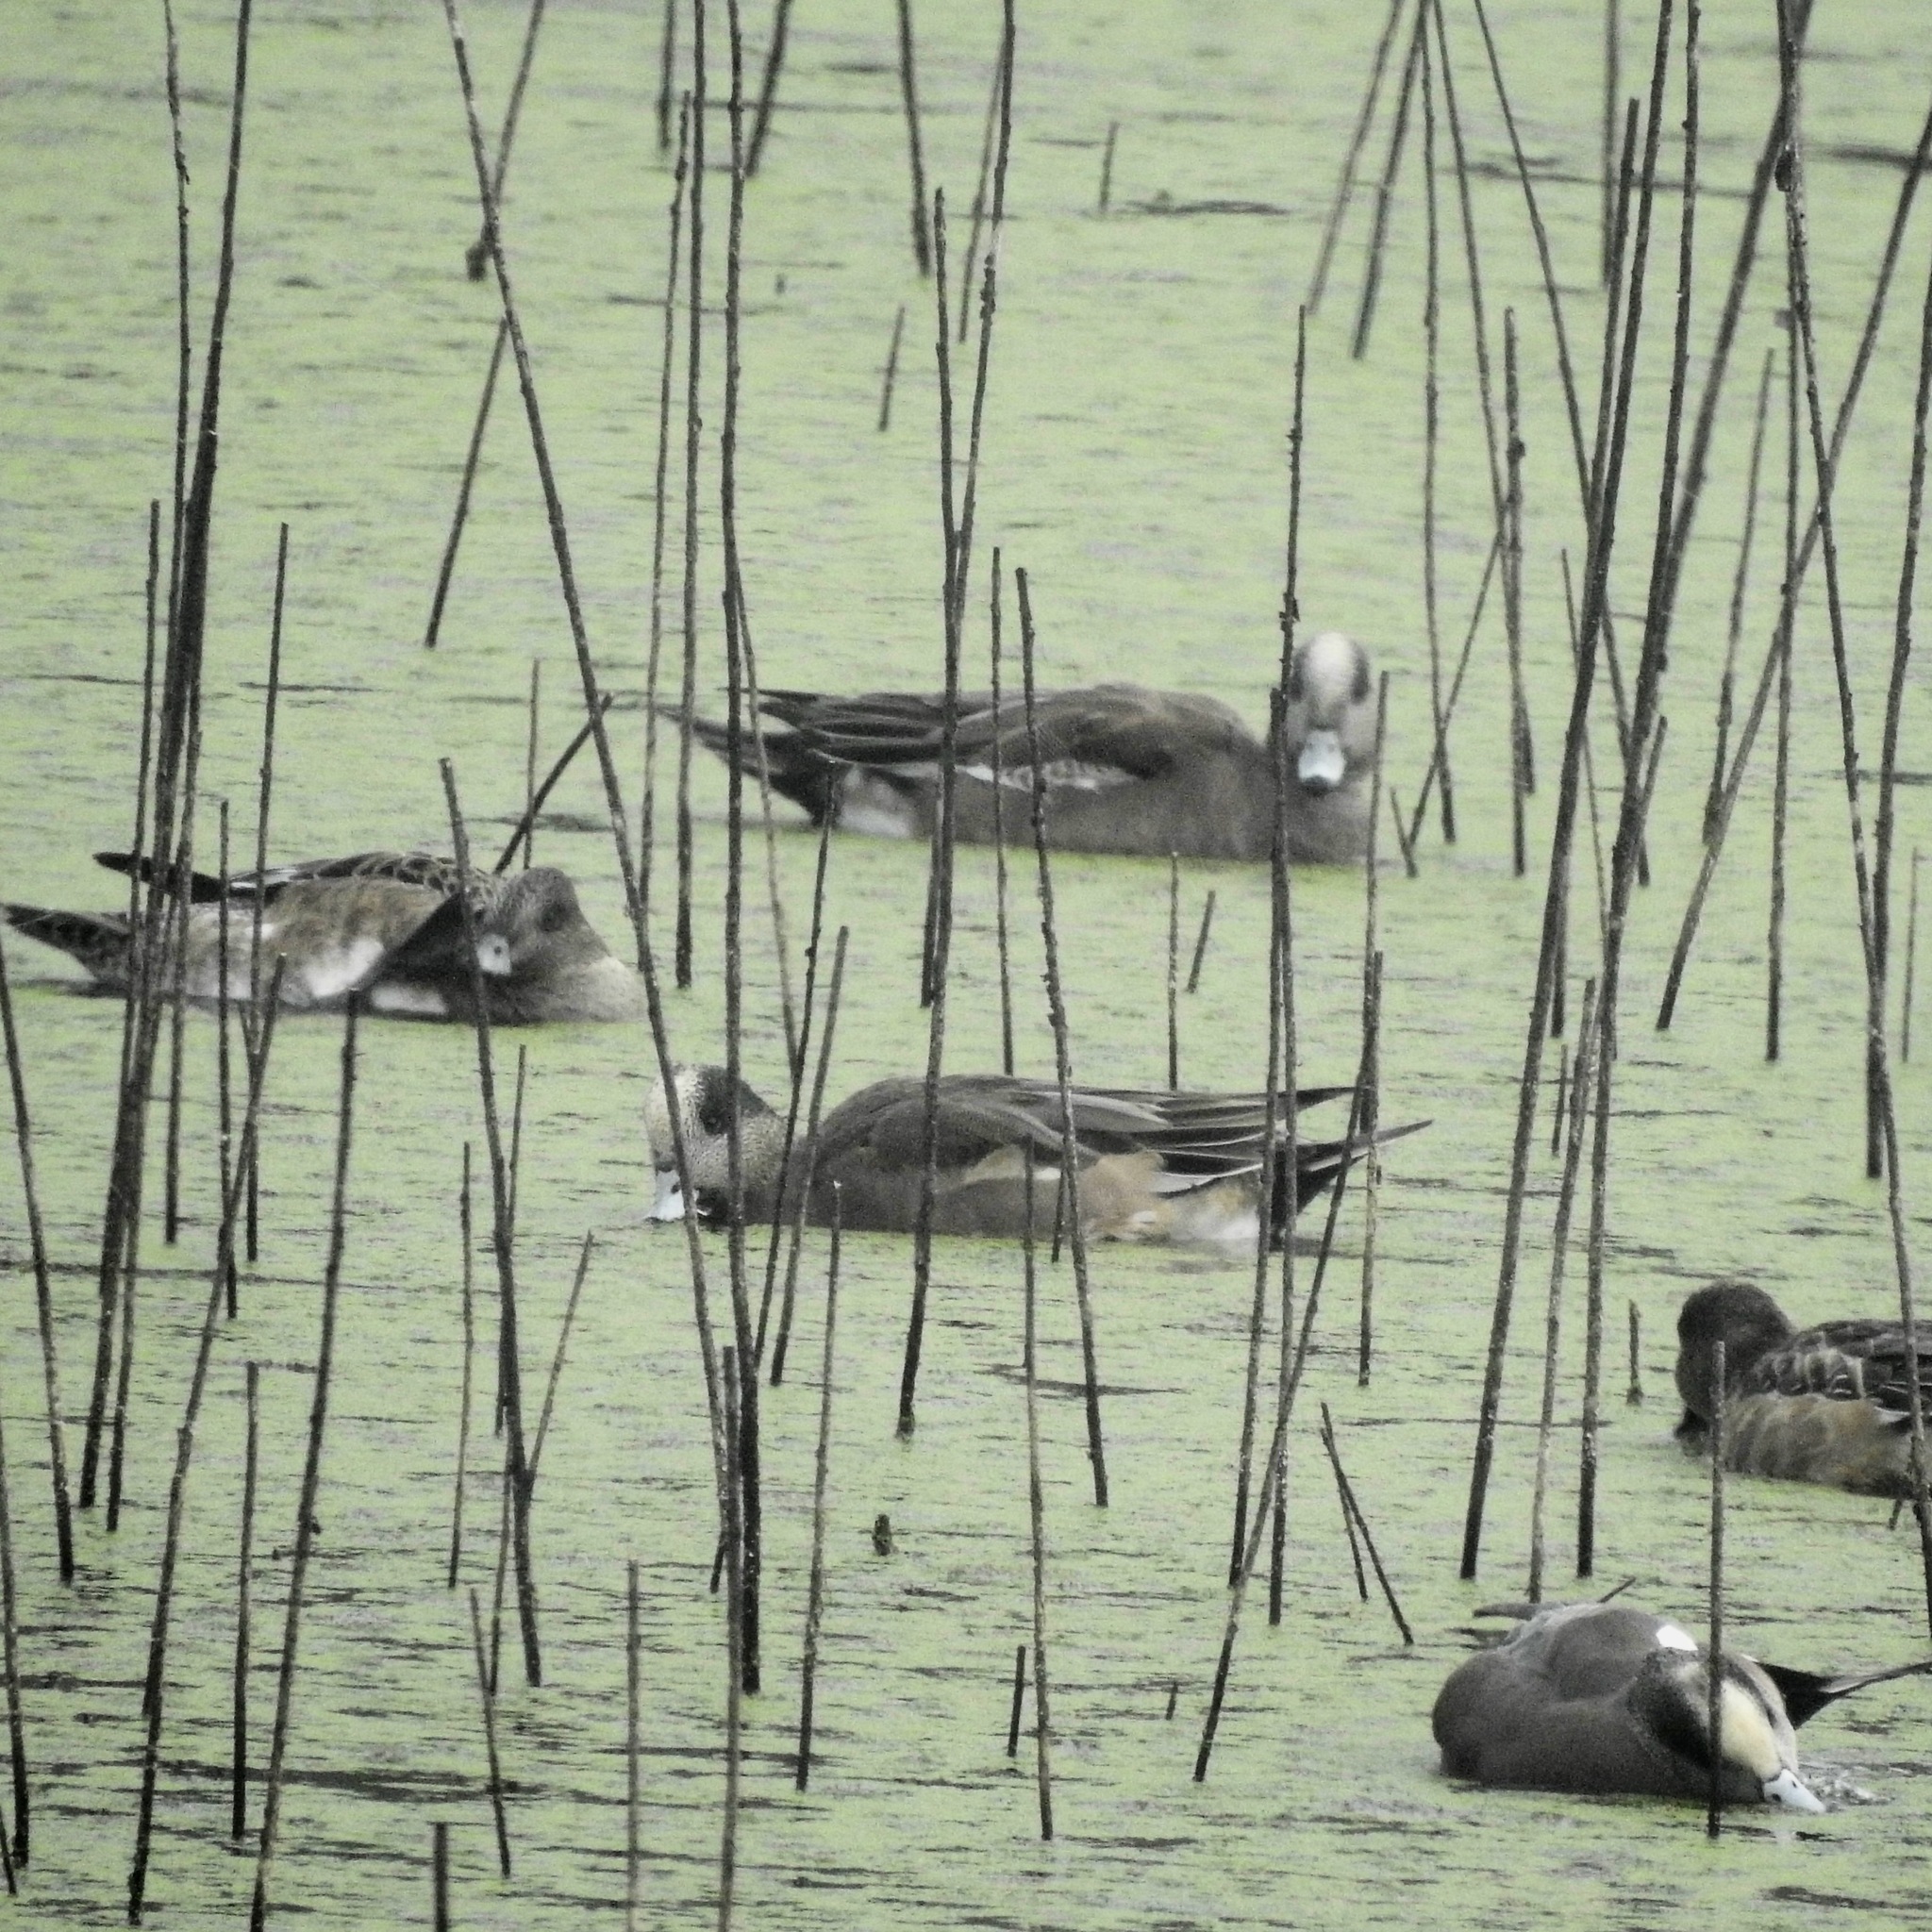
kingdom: Animalia
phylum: Chordata
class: Aves
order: Anseriformes
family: Anatidae
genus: Mareca
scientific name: Mareca americana
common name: American wigeon
